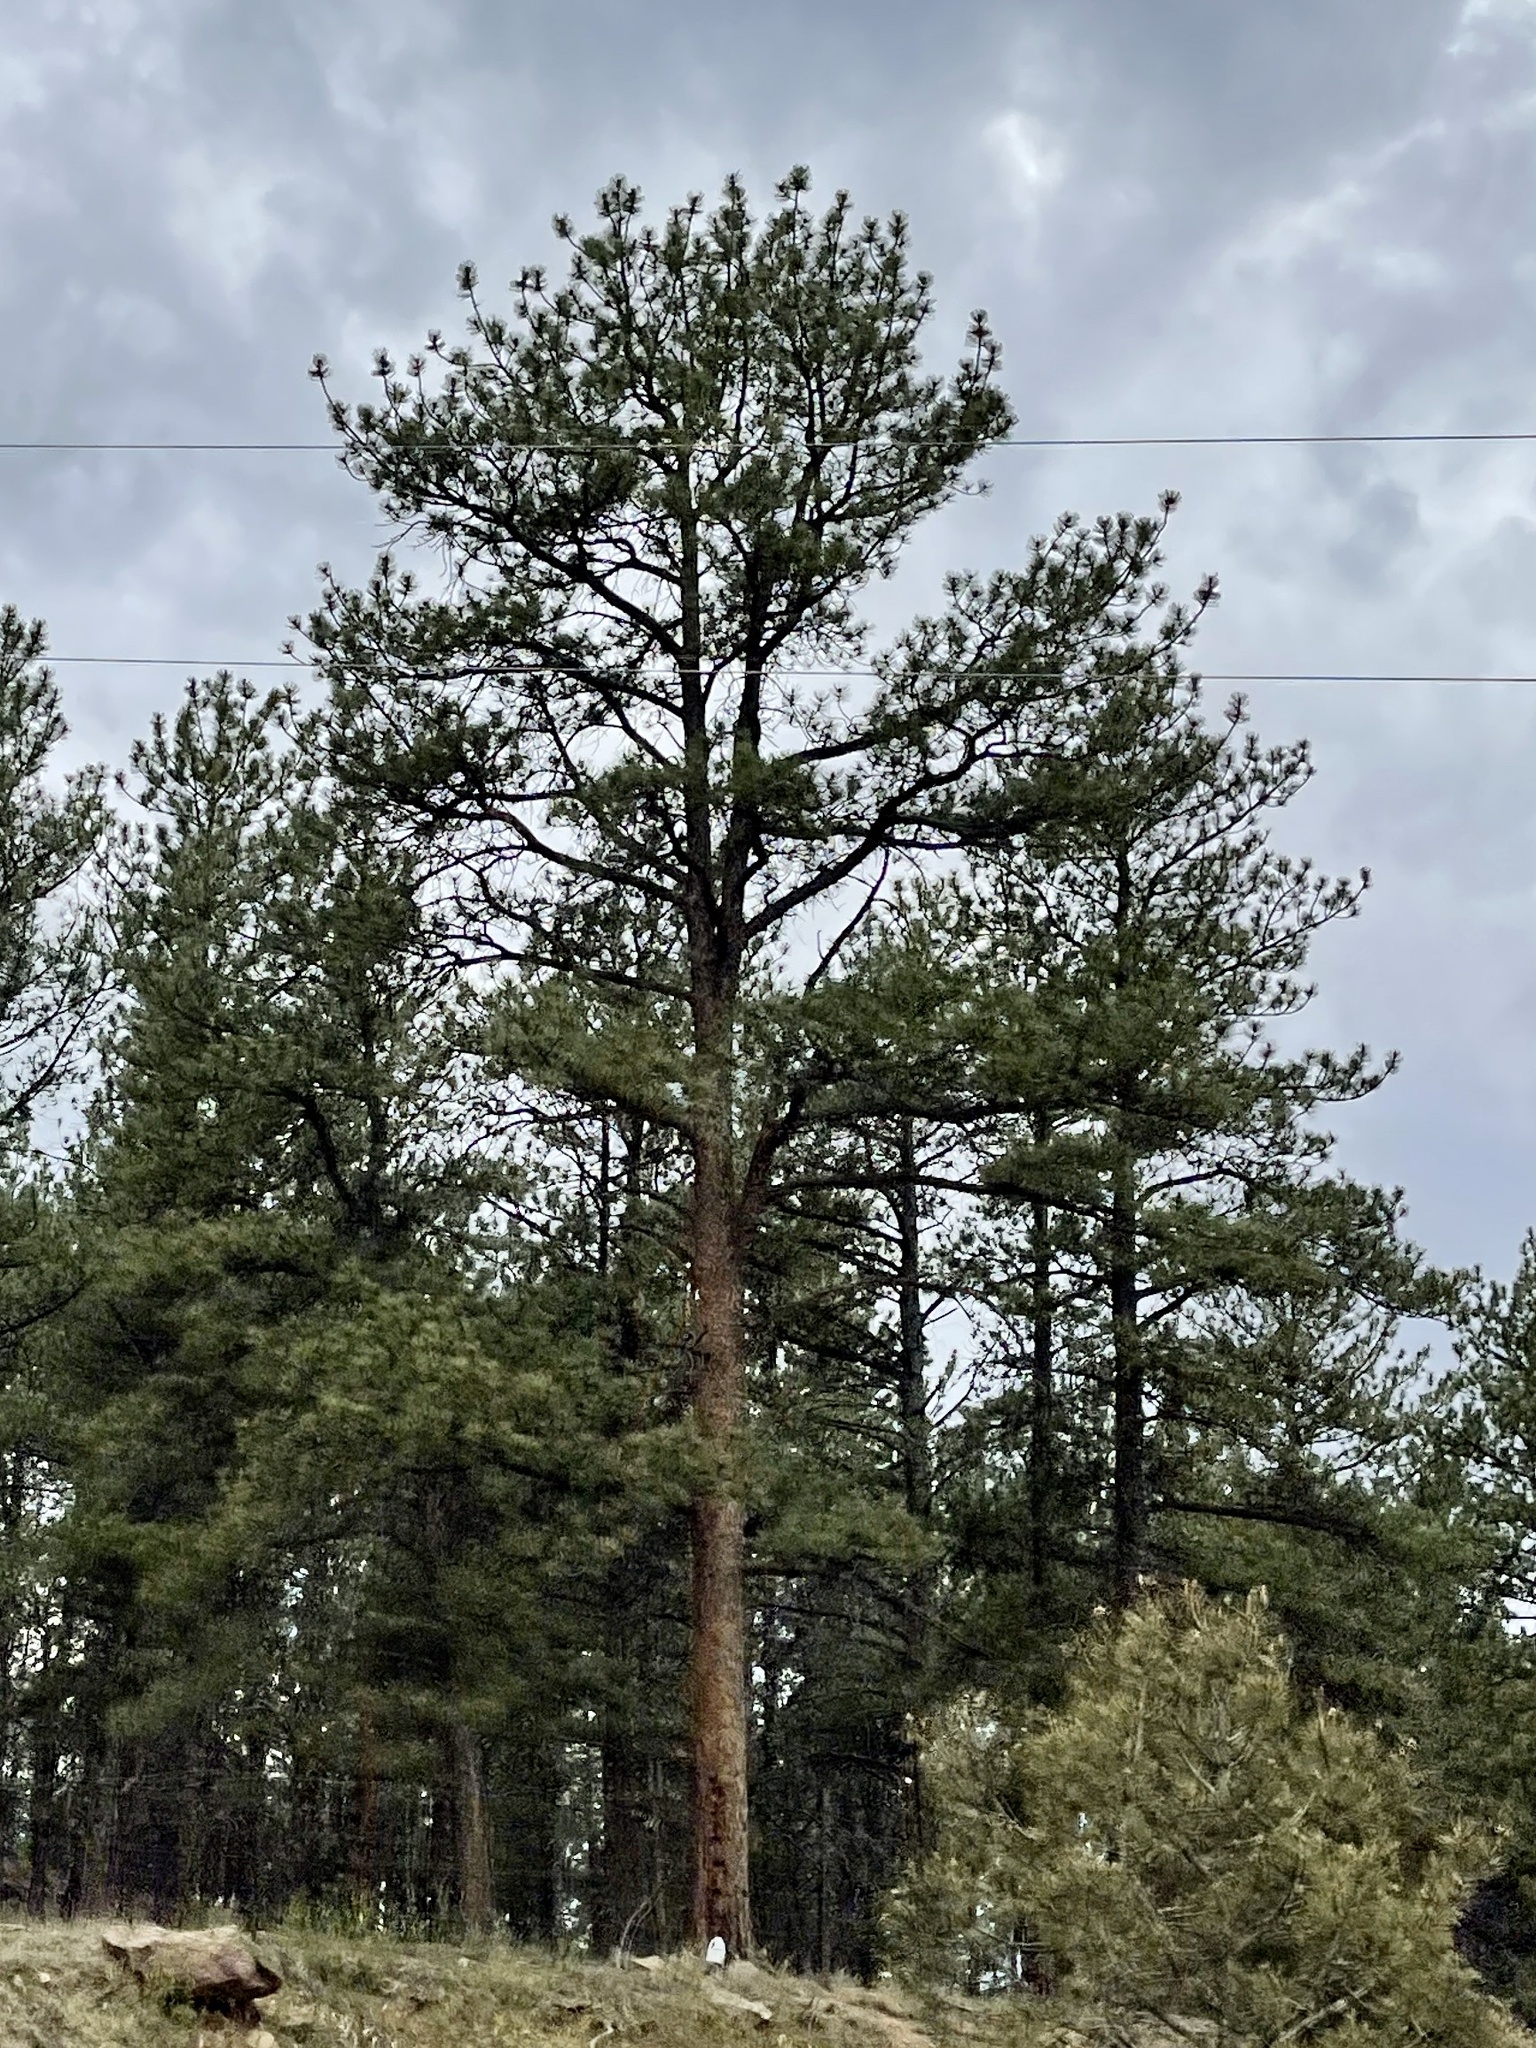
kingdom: Plantae
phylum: Tracheophyta
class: Pinopsida
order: Pinales
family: Pinaceae
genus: Pinus
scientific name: Pinus ponderosa
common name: Western yellow-pine
